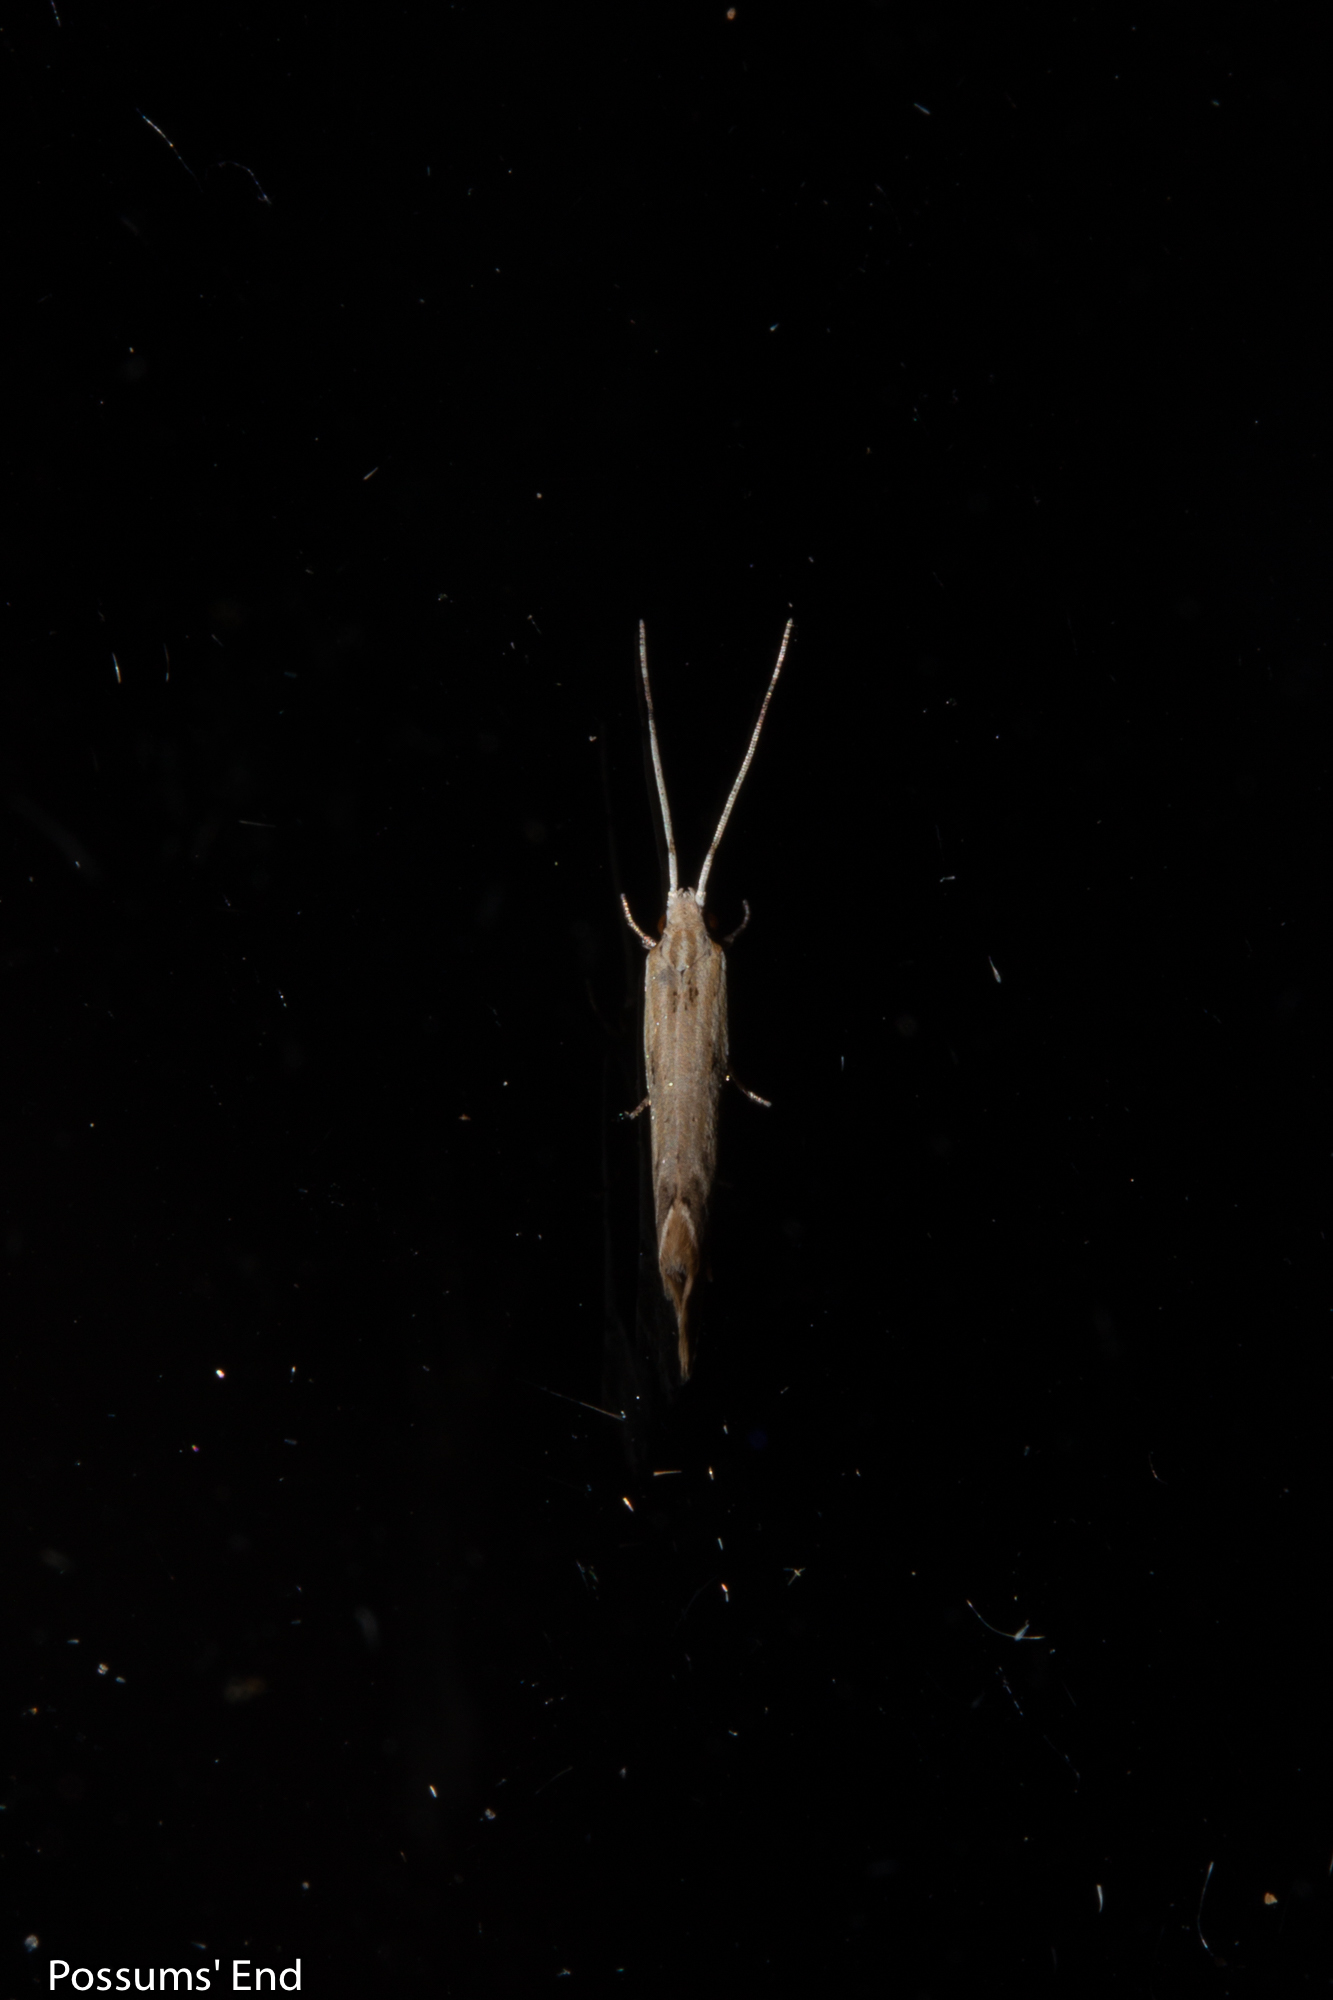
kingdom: Animalia
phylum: Arthropoda
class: Insecta
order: Lepidoptera
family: Tineidae
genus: Sagephora
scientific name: Sagephora phortegella
